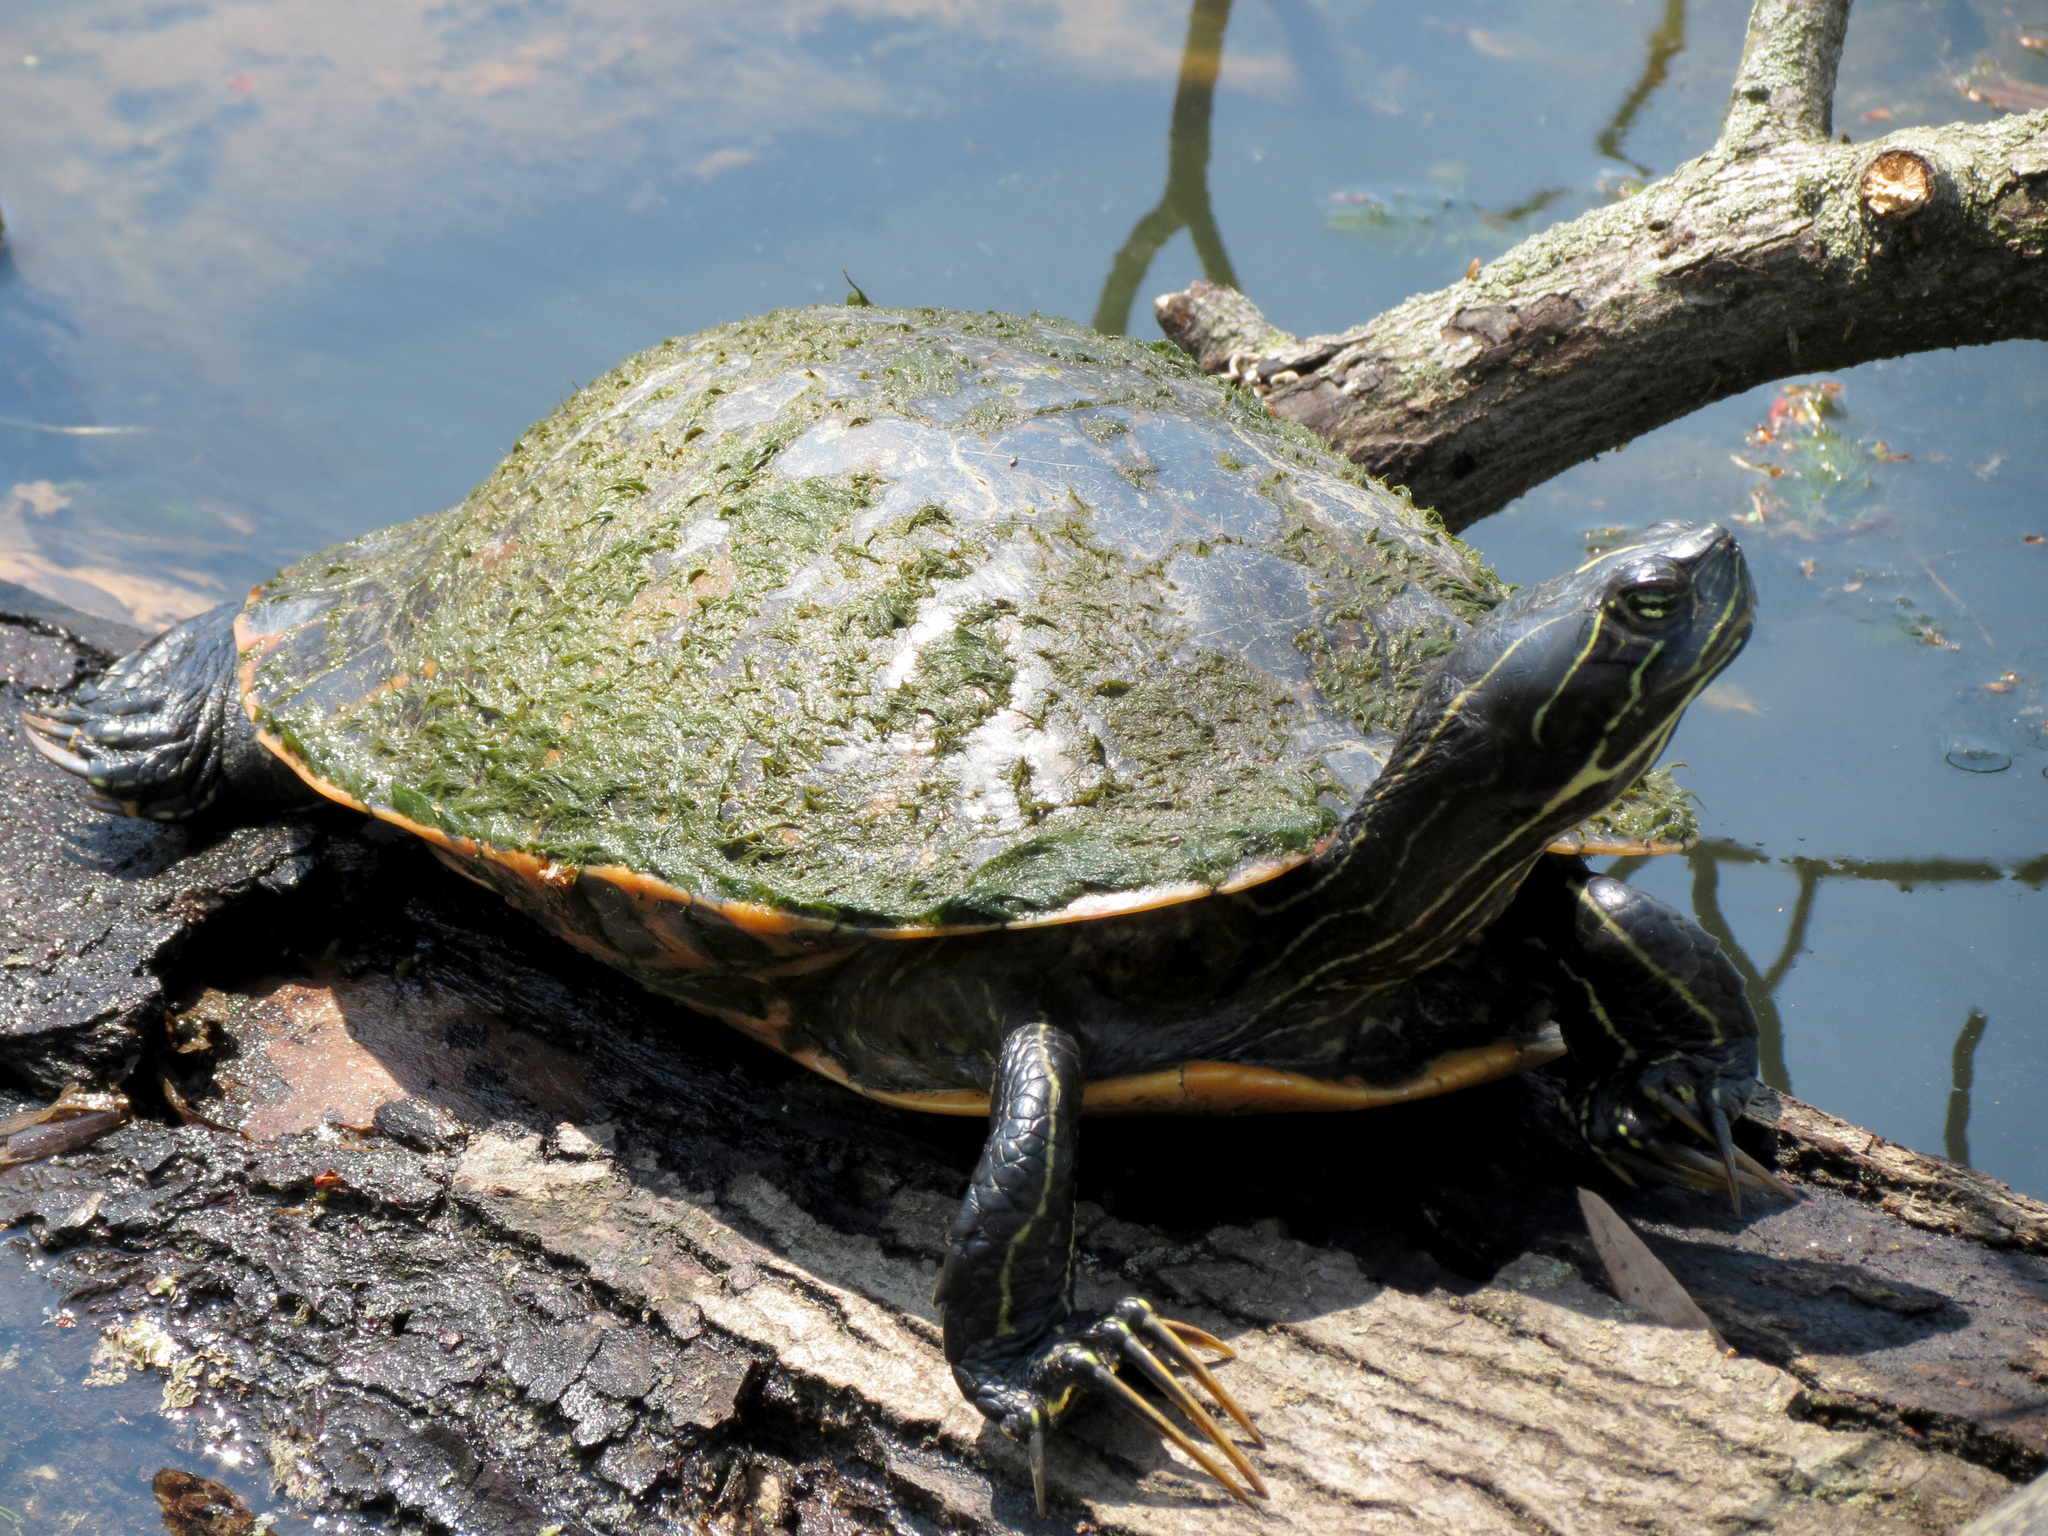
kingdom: Animalia
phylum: Chordata
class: Testudines
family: Emydidae
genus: Pseudemys
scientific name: Pseudemys rubriventris
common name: American red-bellied turtle
